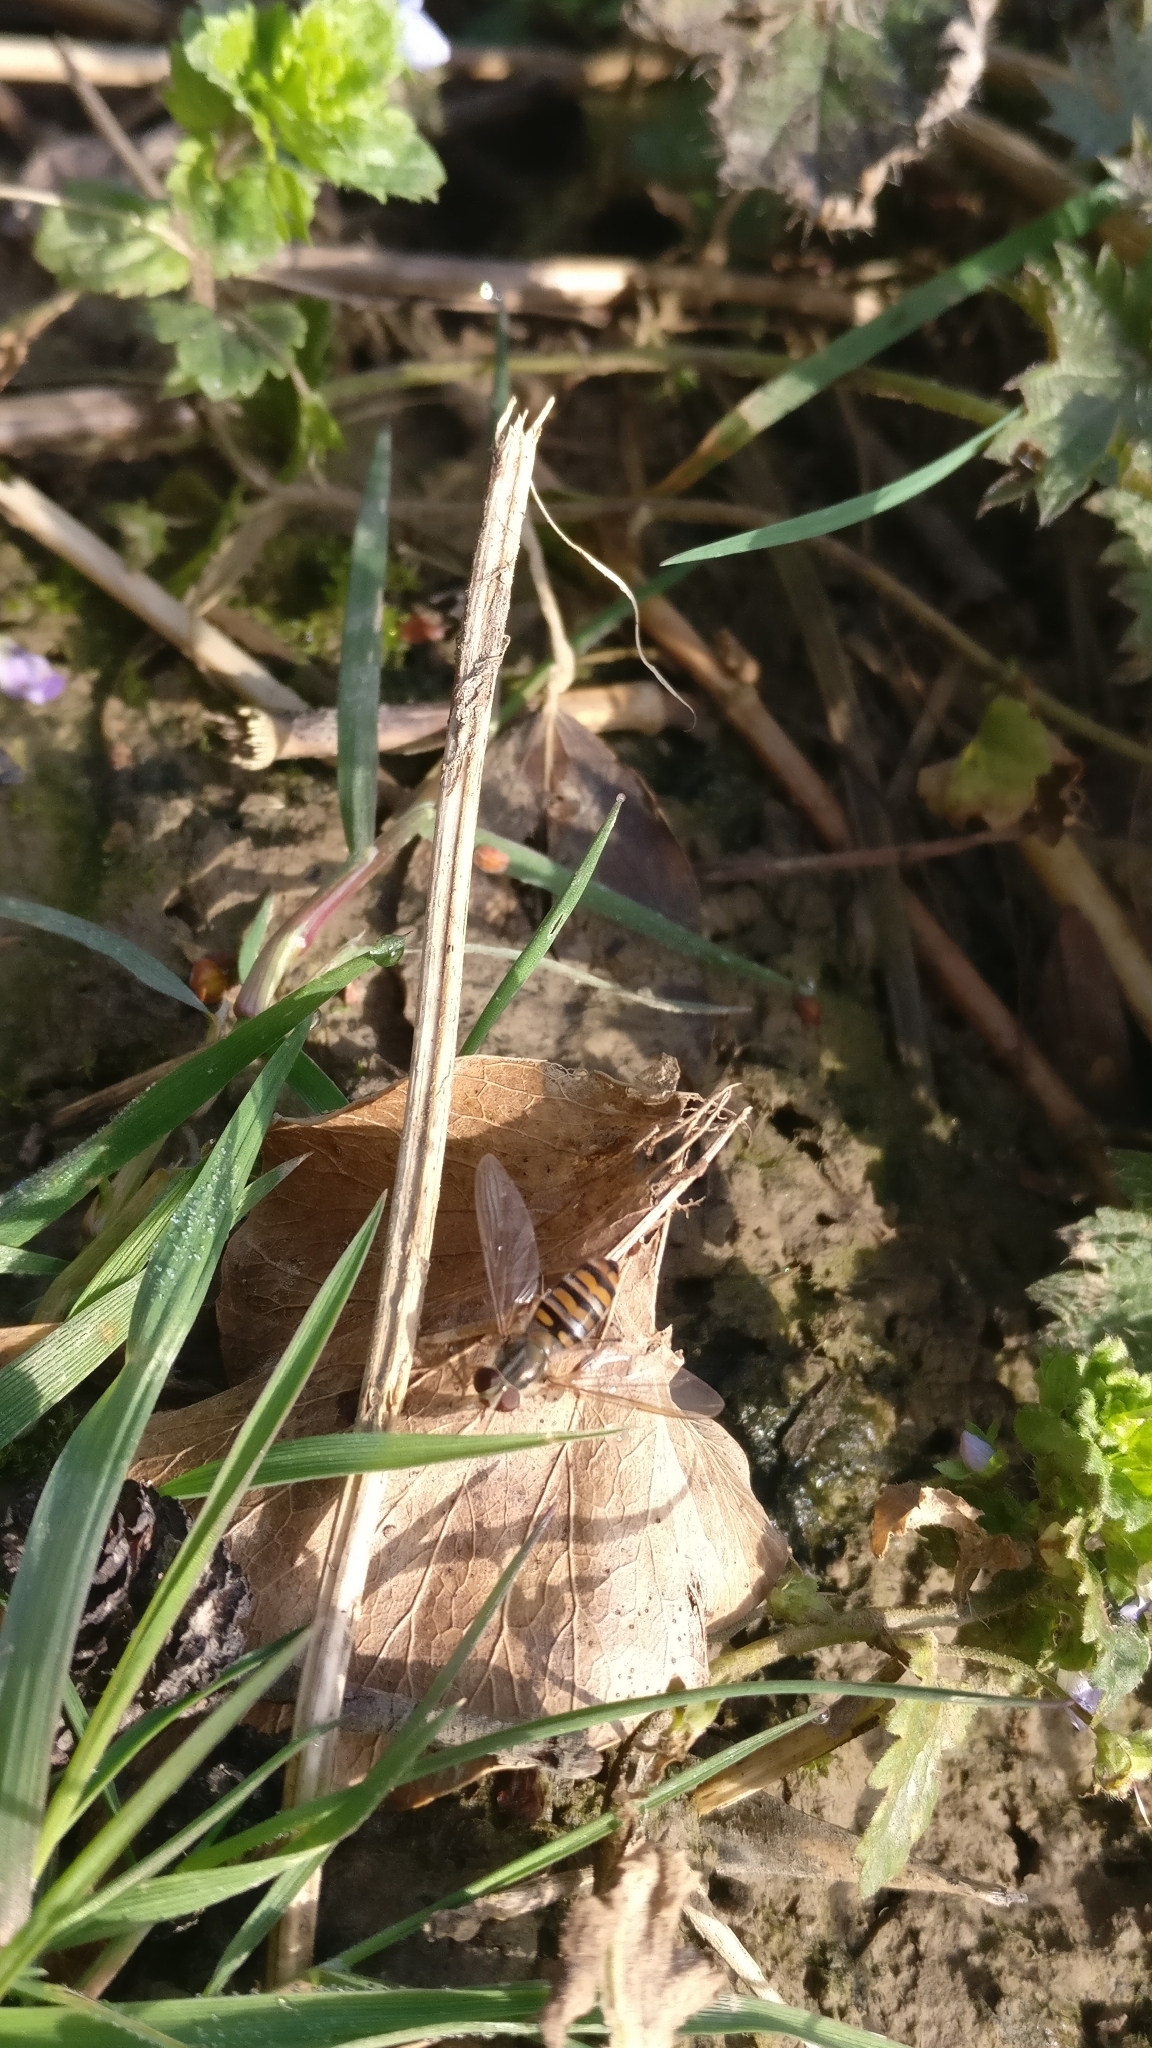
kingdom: Animalia
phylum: Arthropoda
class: Insecta
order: Diptera
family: Syrphidae
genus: Episyrphus
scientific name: Episyrphus balteatus
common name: Marmalade hoverfly
